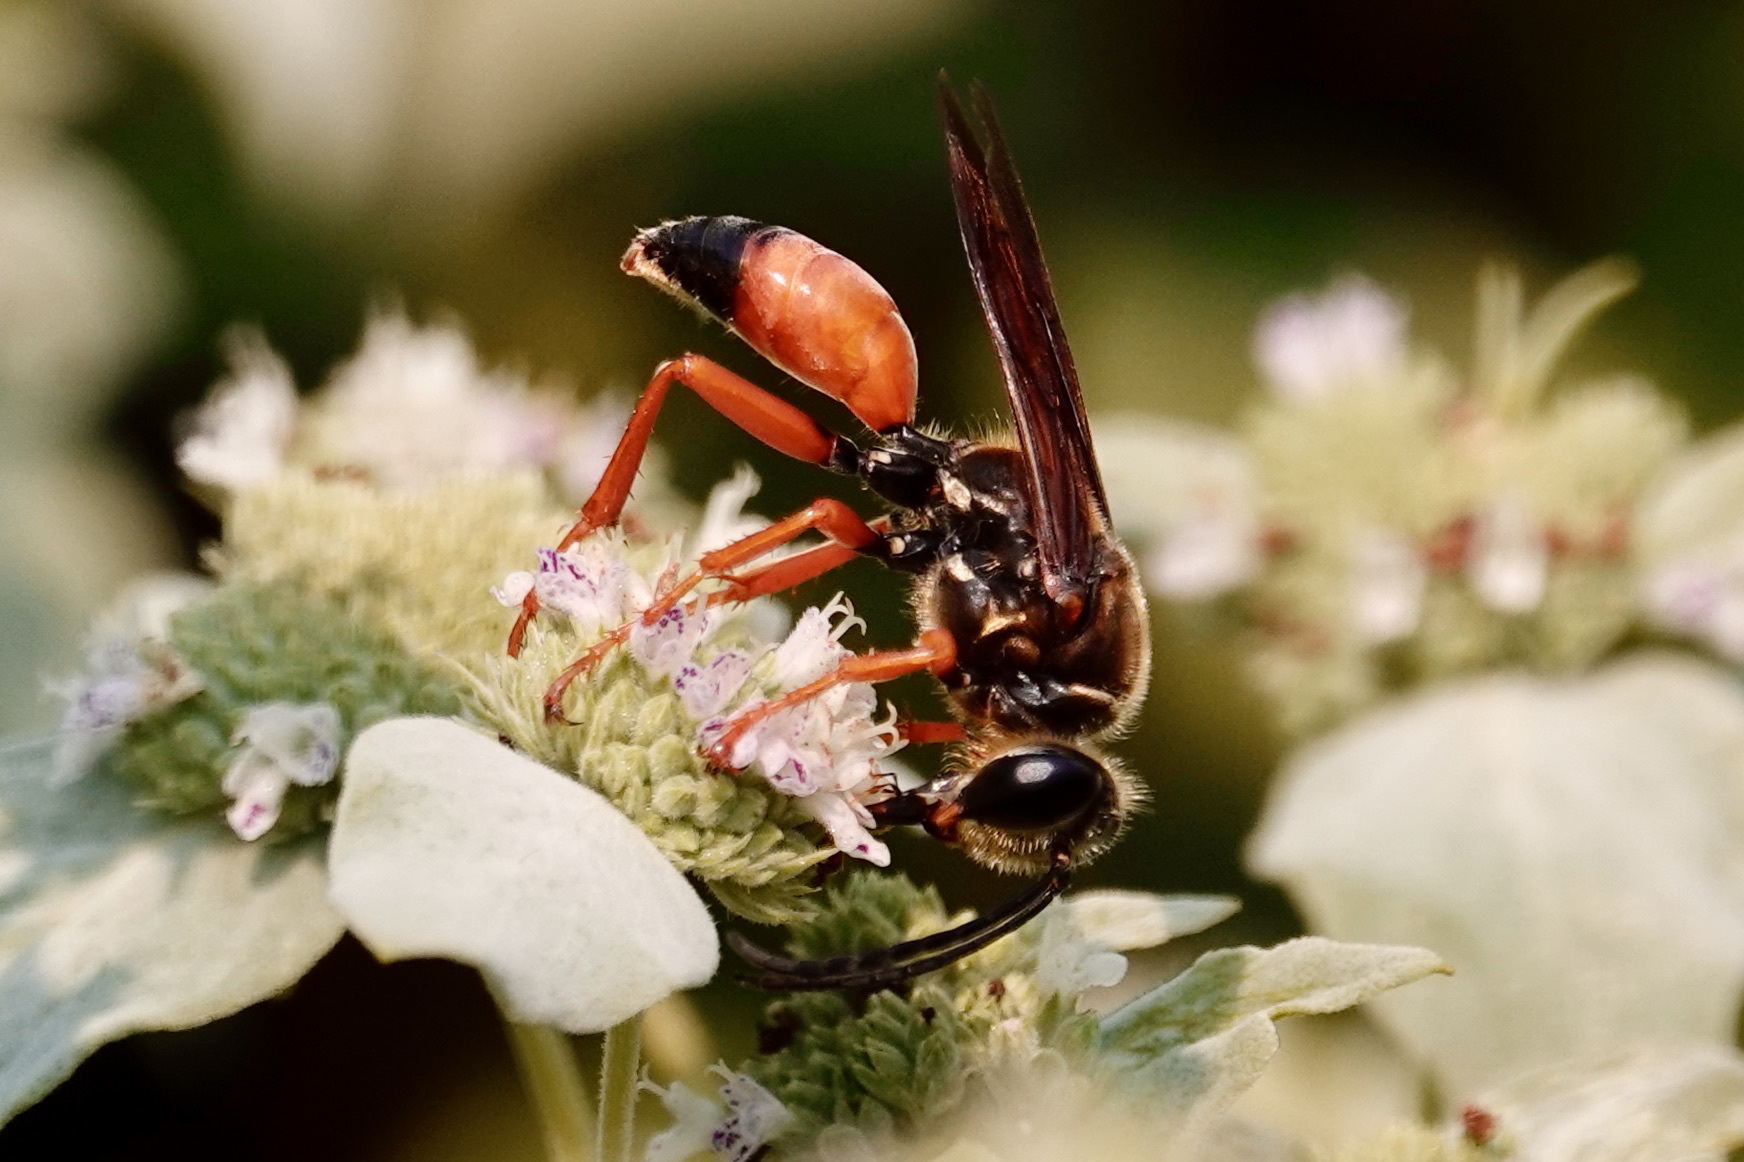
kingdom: Animalia
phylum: Arthropoda
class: Insecta
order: Hymenoptera
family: Sphecidae
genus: Sphex
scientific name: Sphex ichneumoneus
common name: Great golden digger wasp
